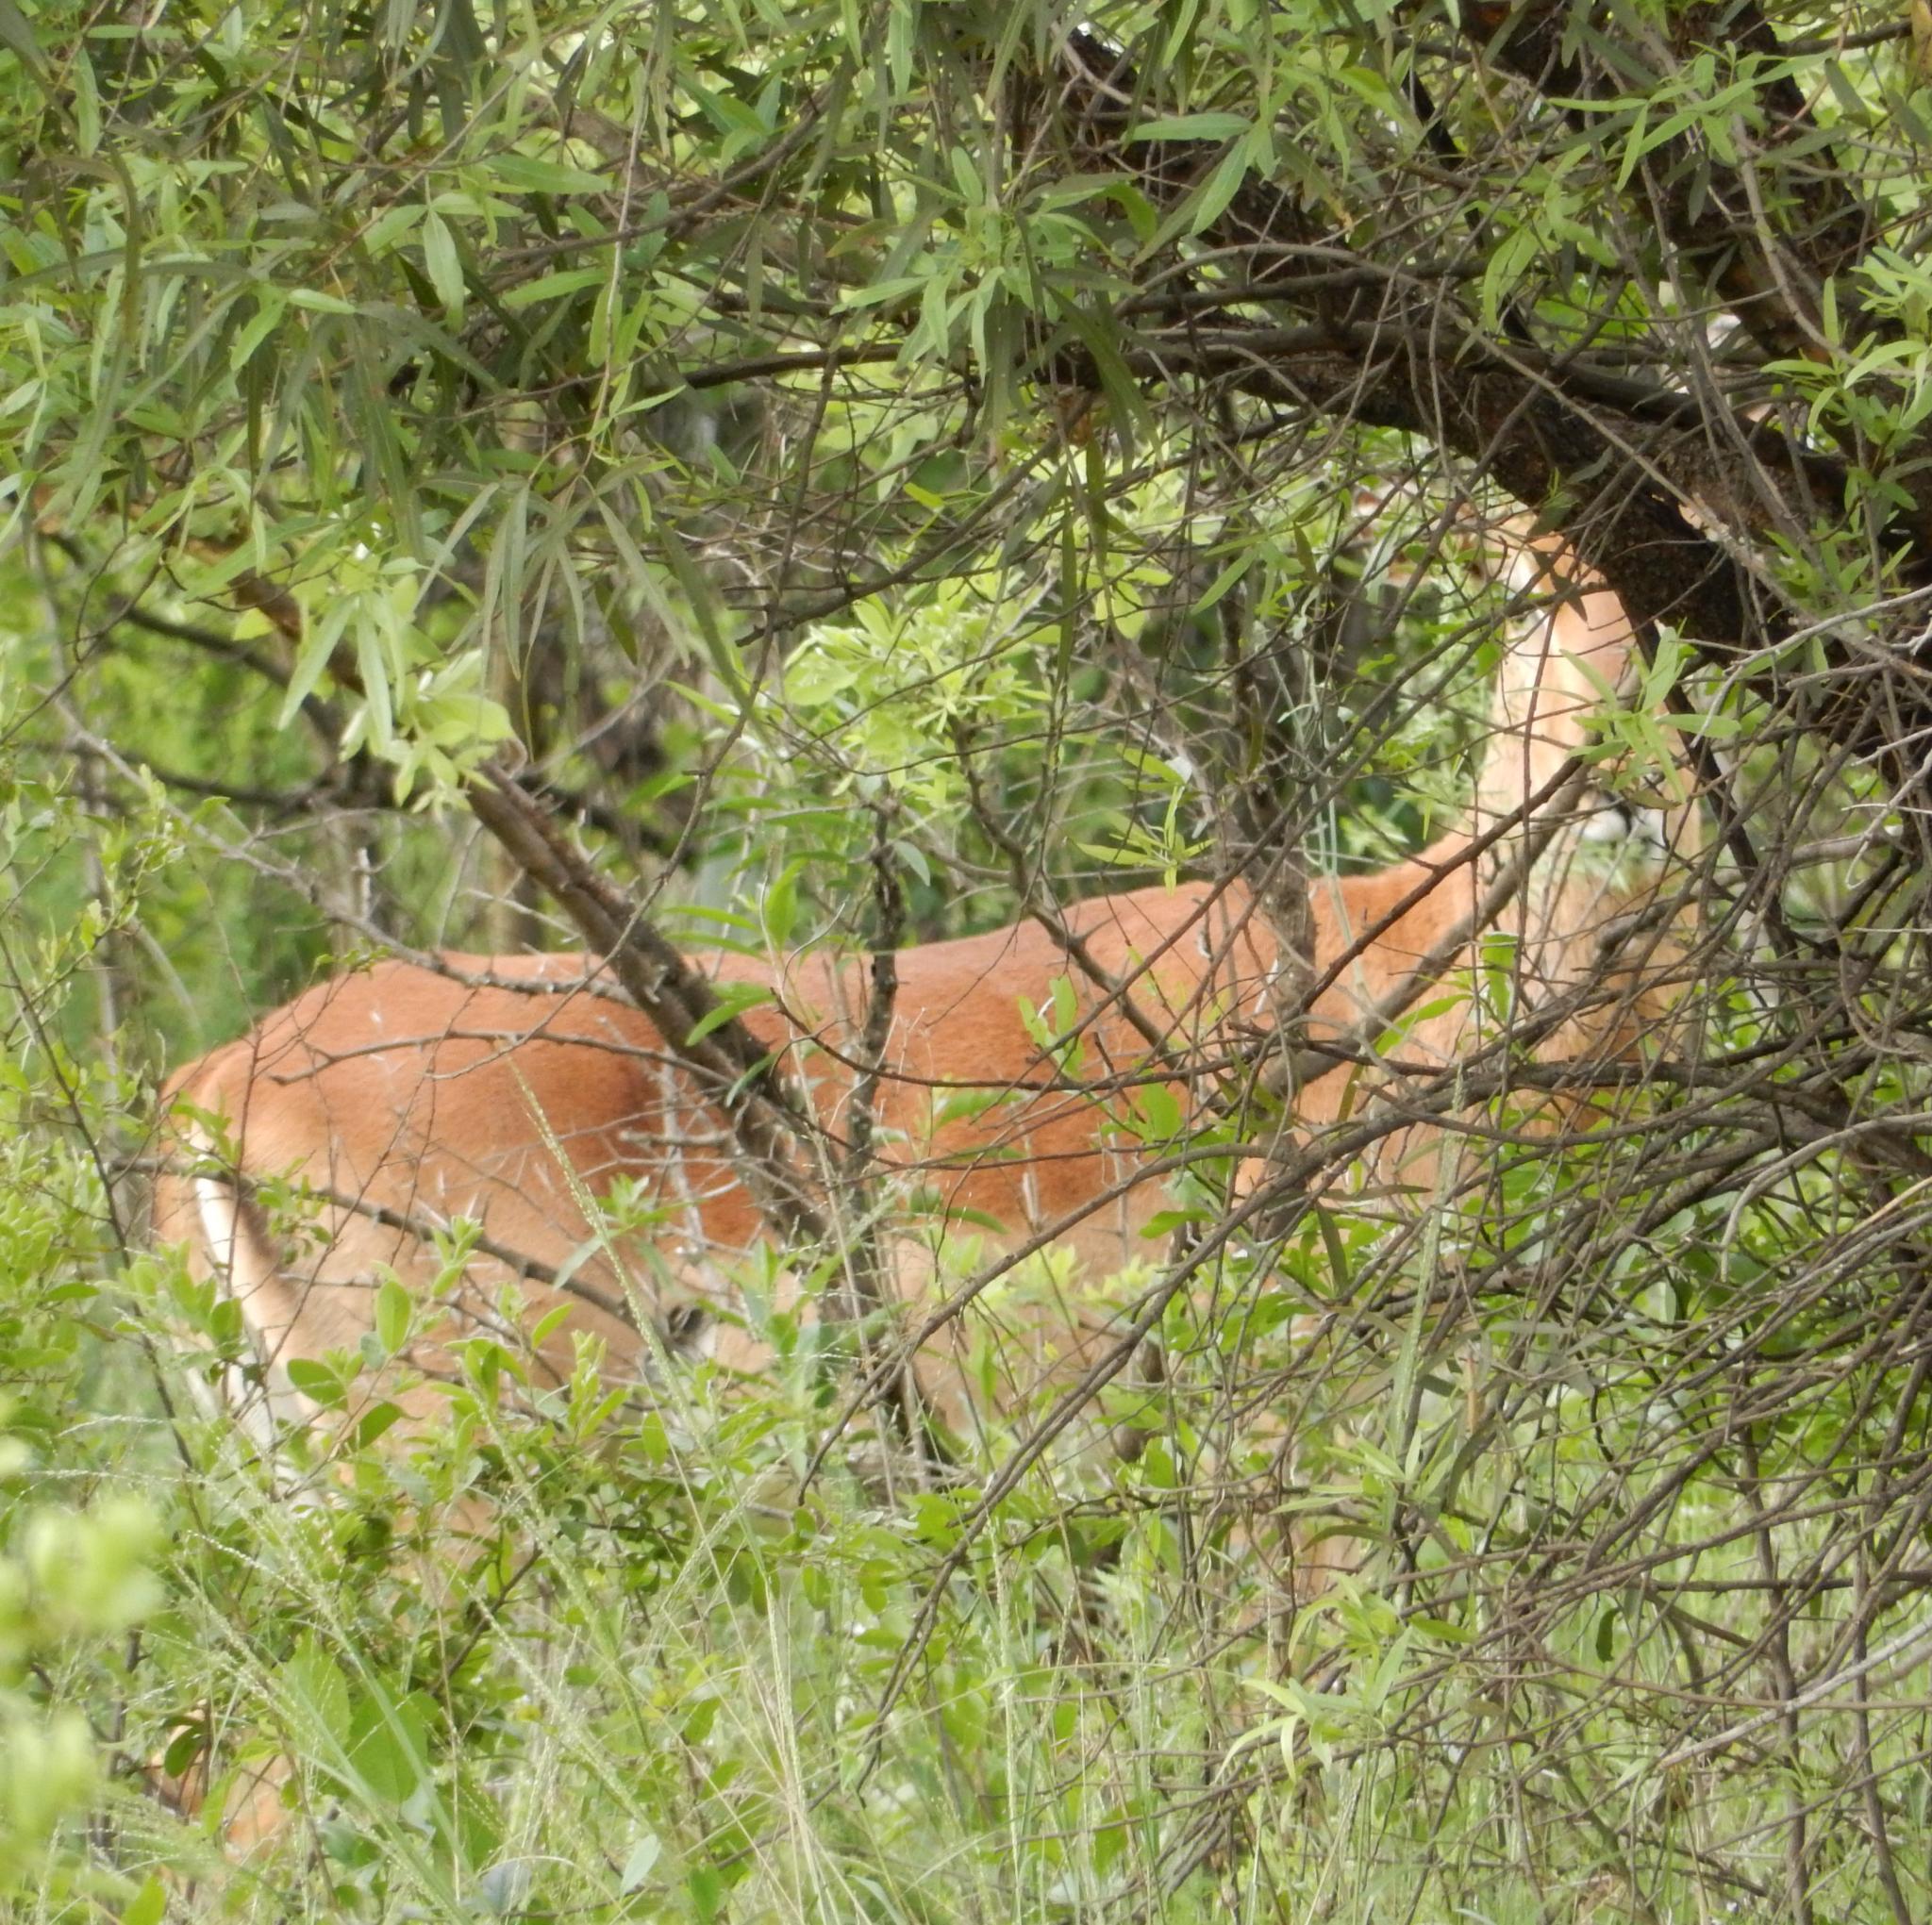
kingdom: Animalia
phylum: Chordata
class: Mammalia
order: Artiodactyla
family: Bovidae
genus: Aepyceros
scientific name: Aepyceros melampus
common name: Impala
